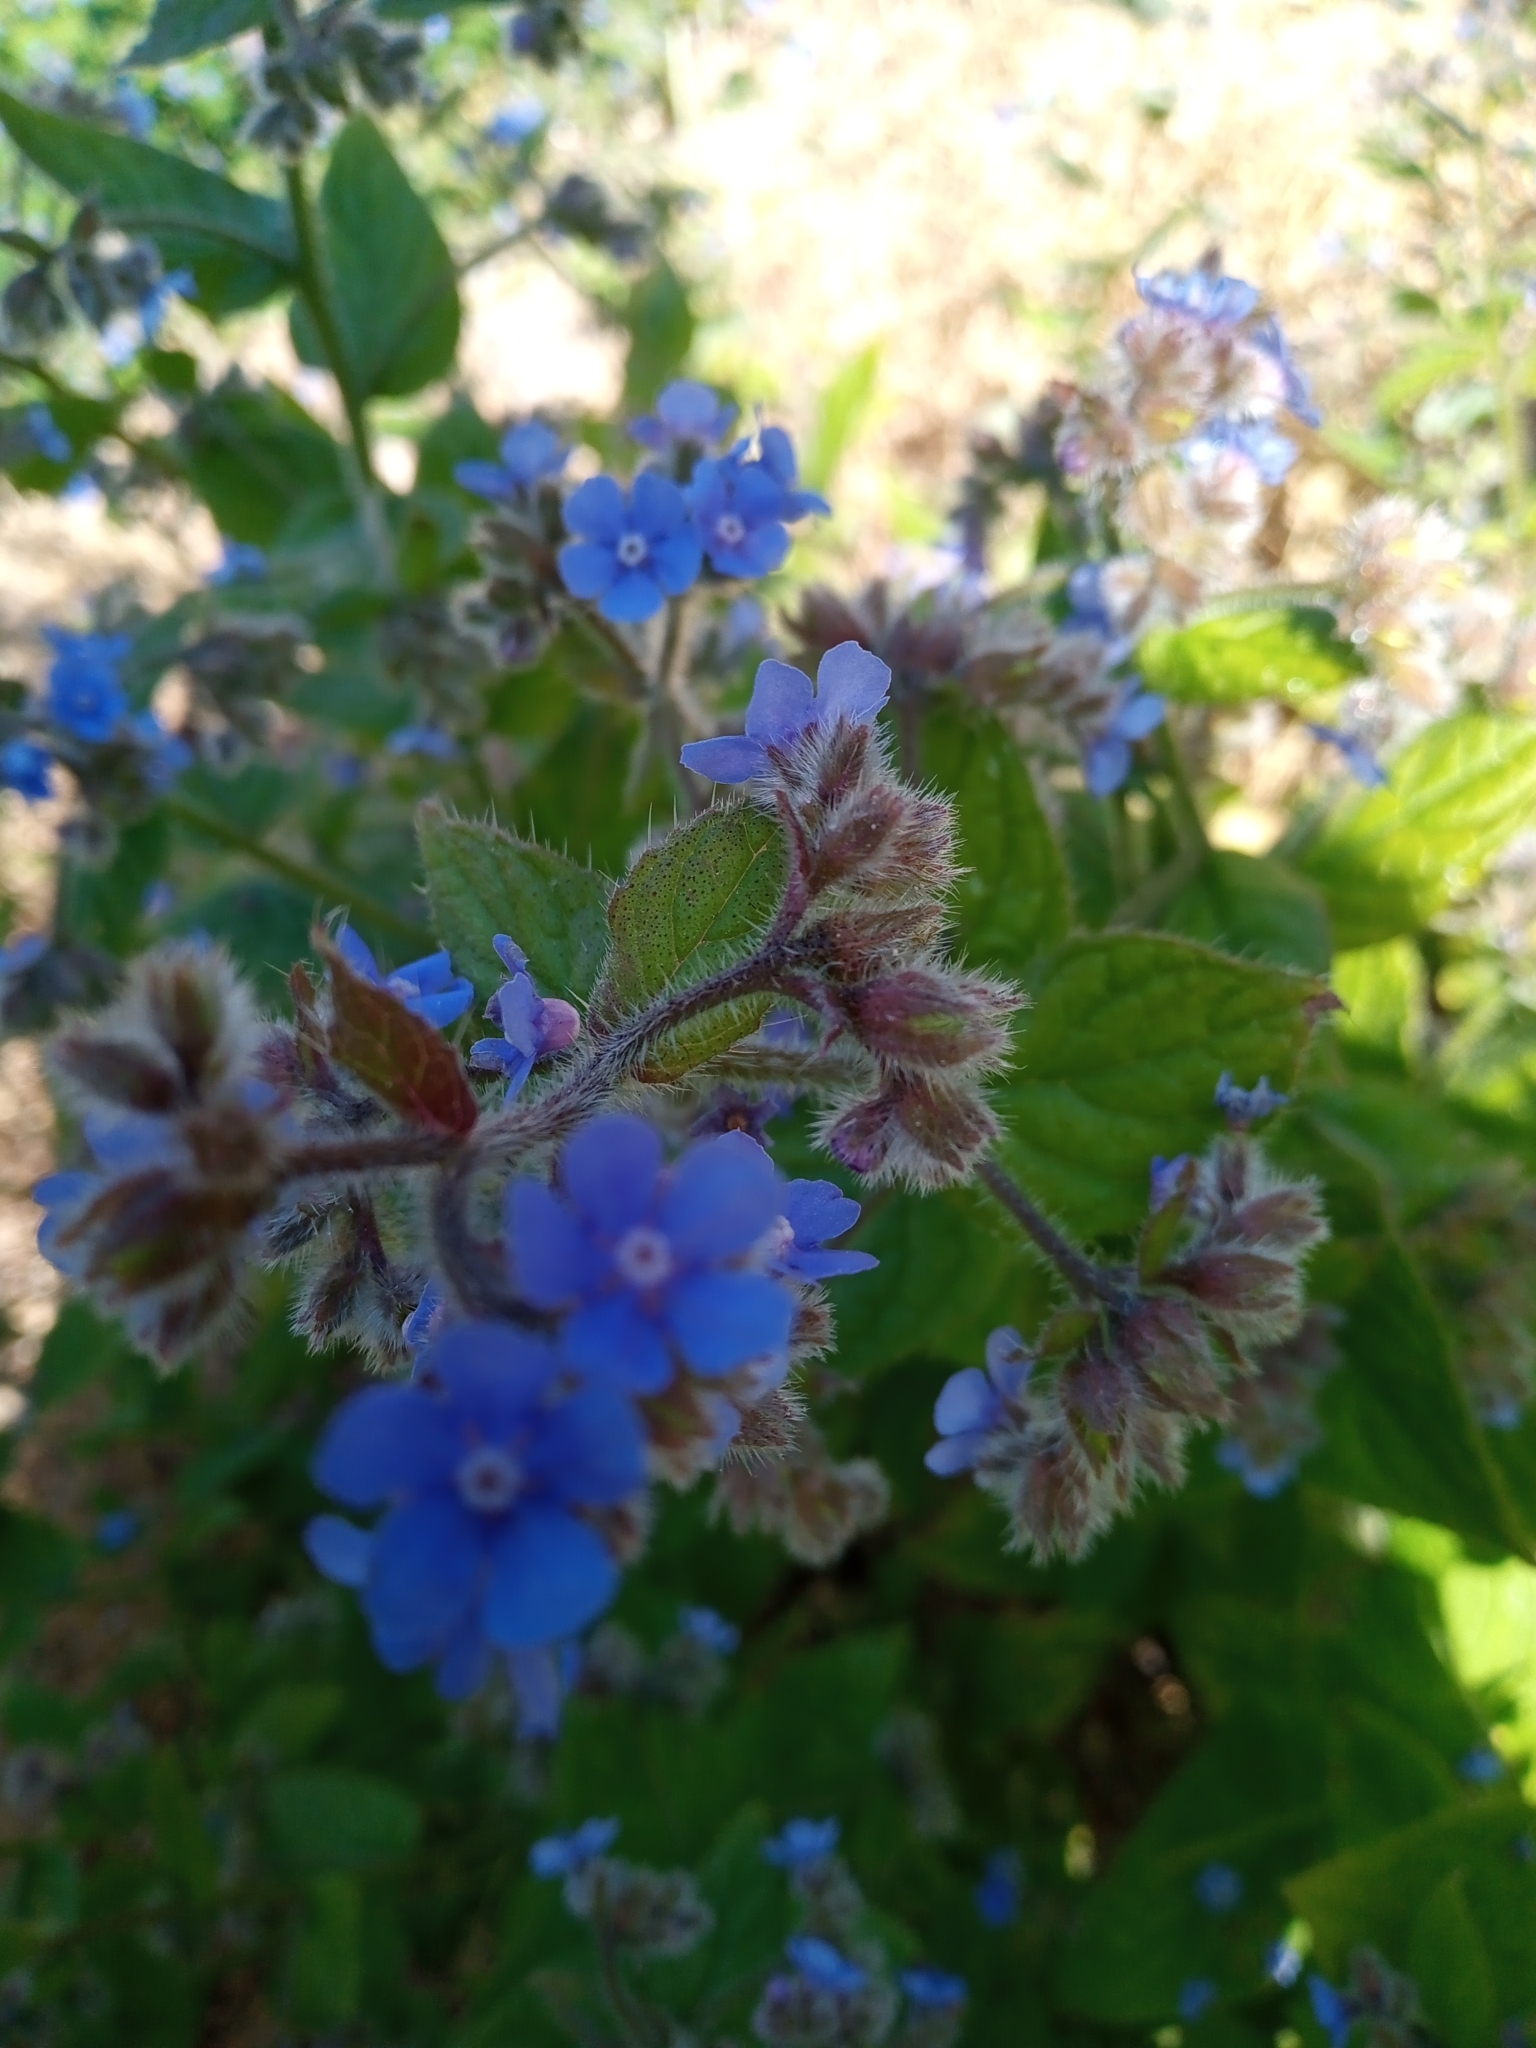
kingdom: Plantae
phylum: Tracheophyta
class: Magnoliopsida
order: Boraginales
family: Boraginaceae
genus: Pentaglottis
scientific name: Pentaglottis sempervirens
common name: Green alkanet
